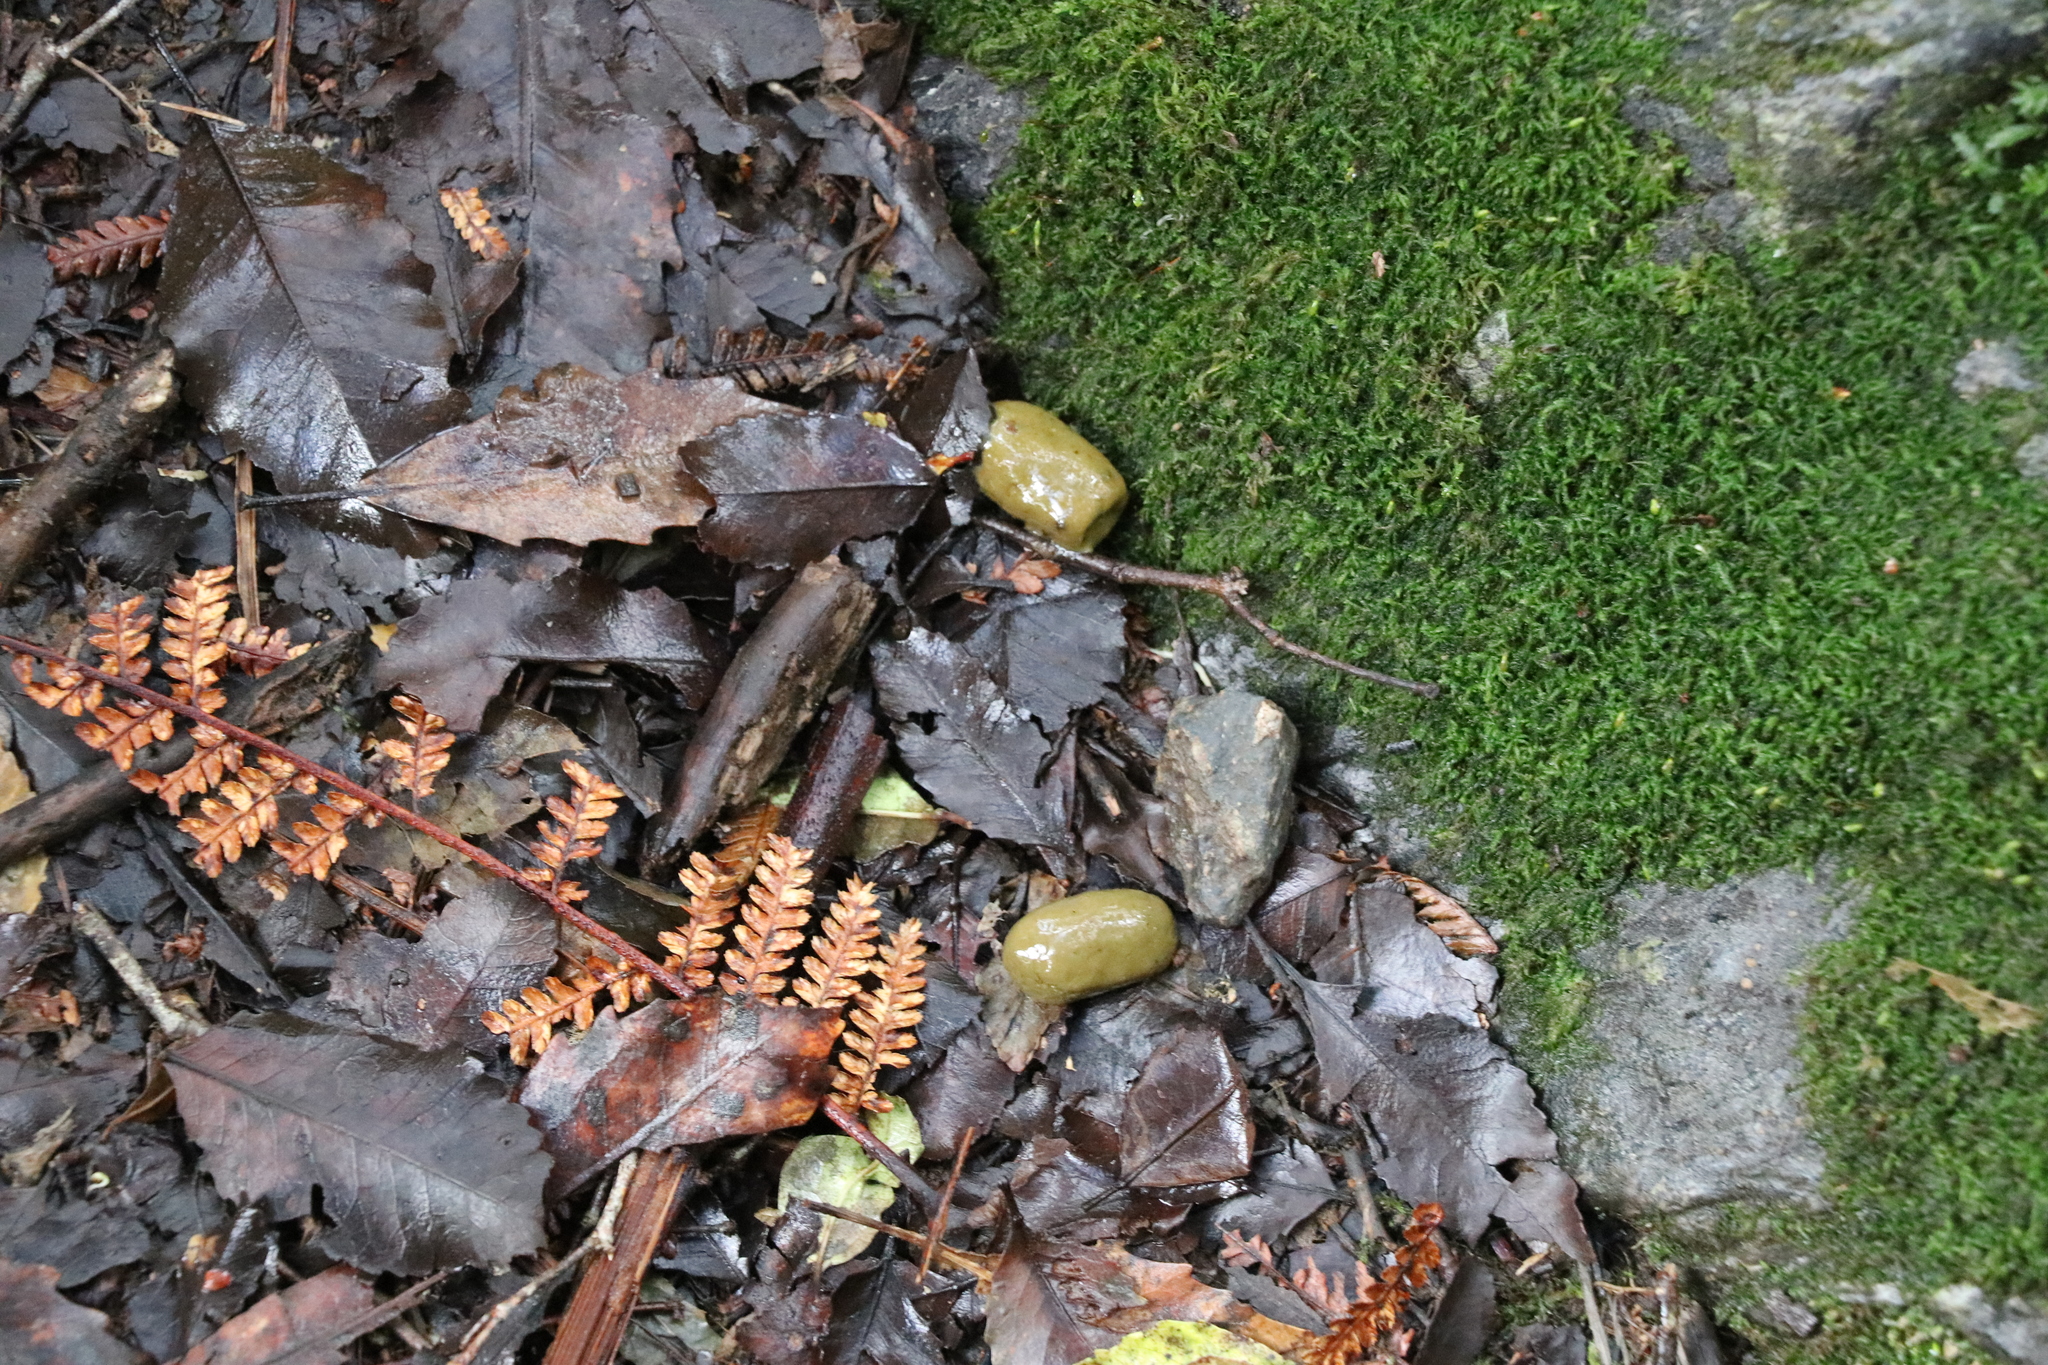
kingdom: Animalia
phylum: Chordata
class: Mammalia
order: Diprotodontia
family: Phalangeridae
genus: Trichosurus
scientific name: Trichosurus vulpecula
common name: Common brushtail
